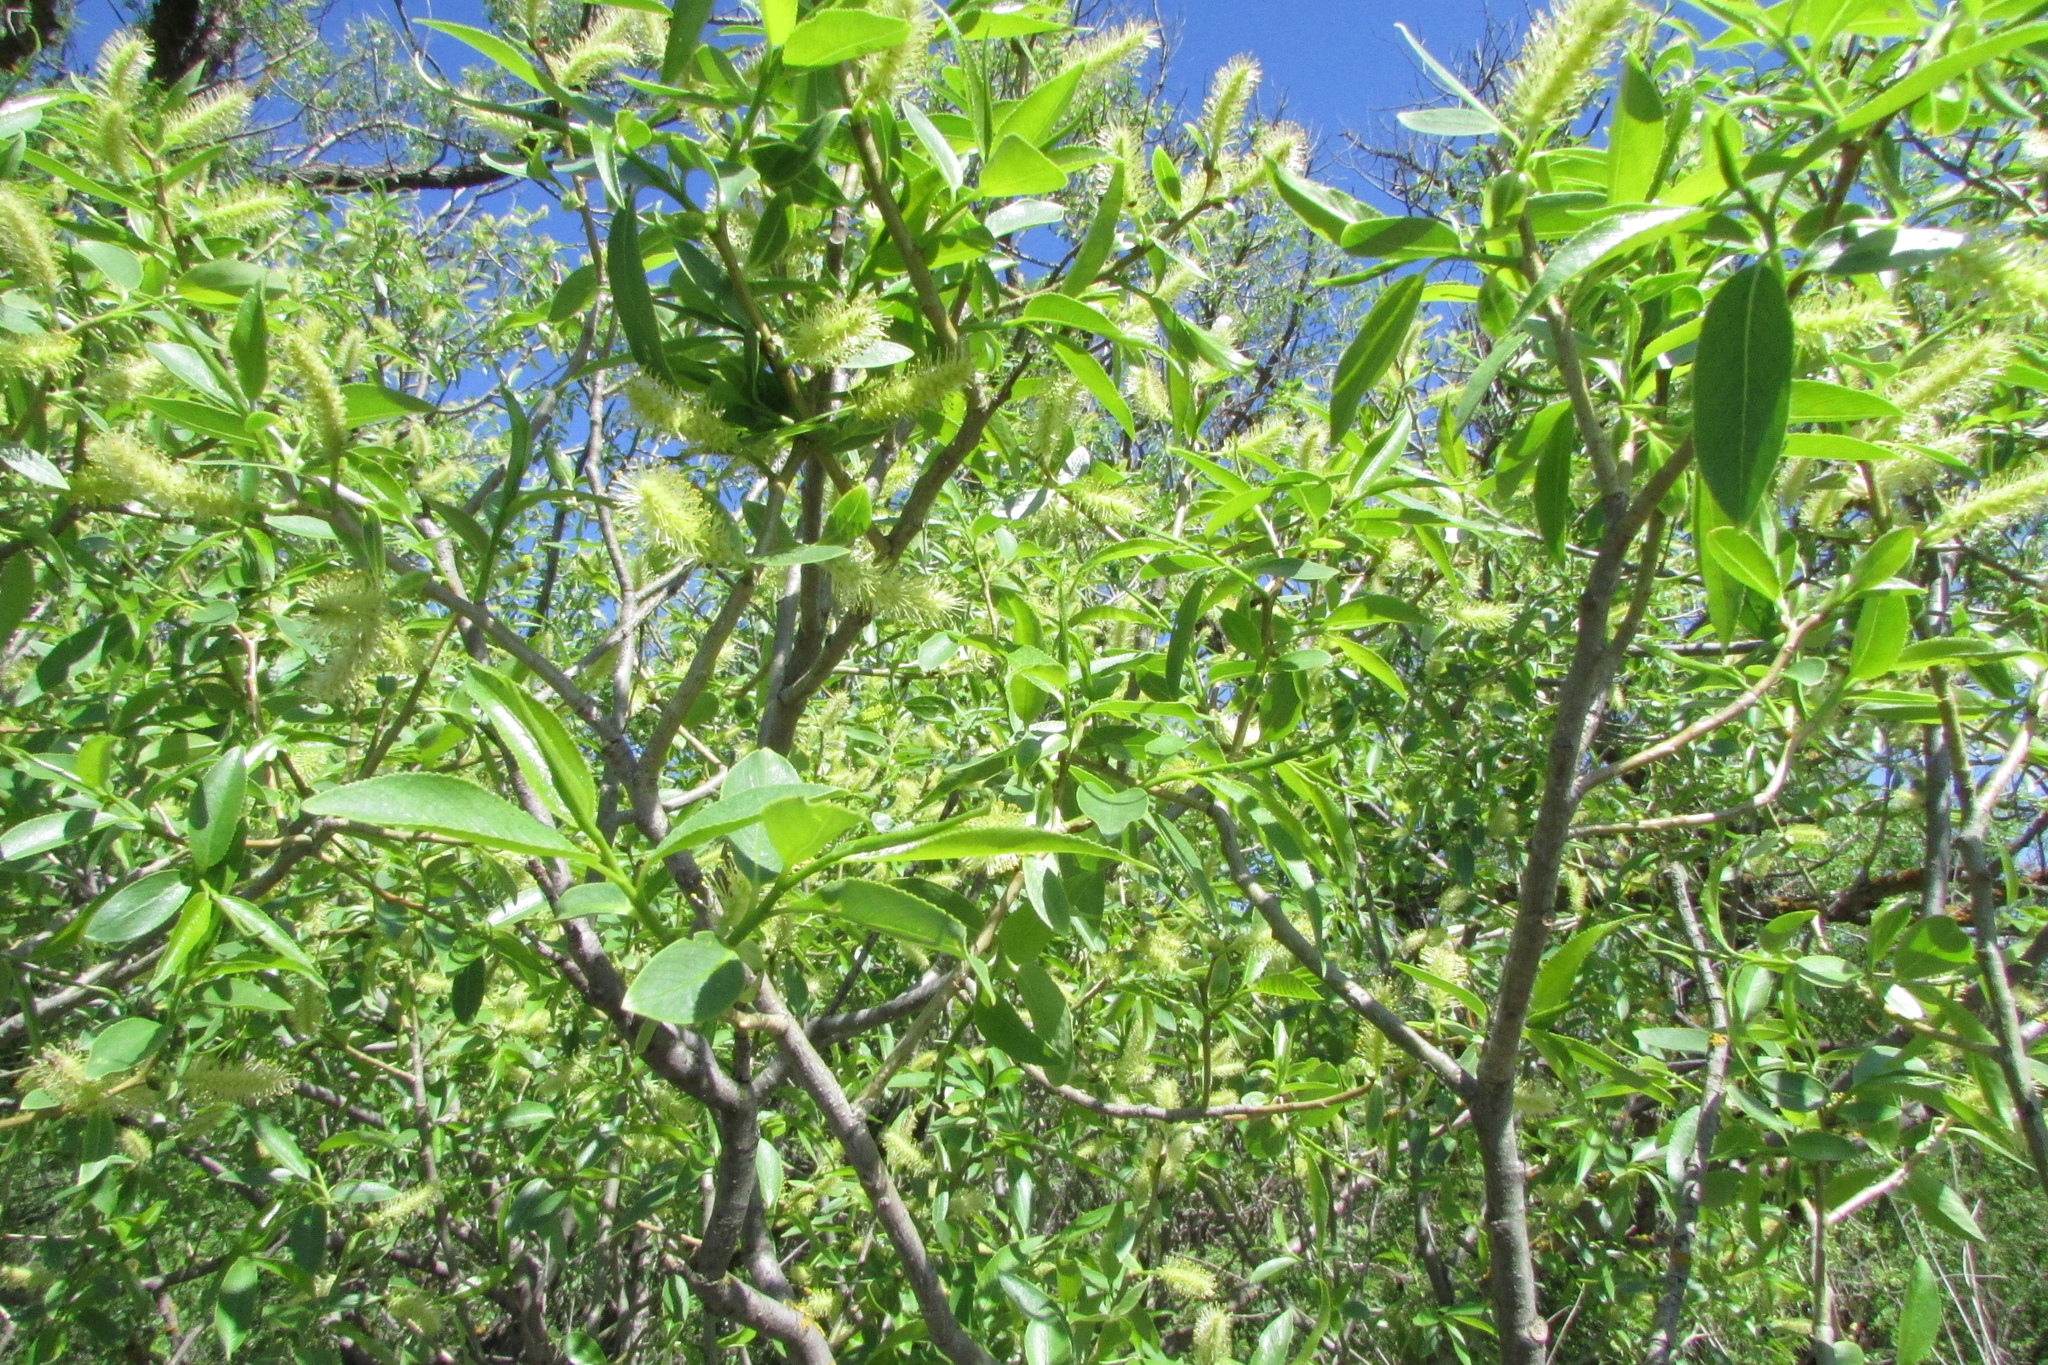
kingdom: Plantae
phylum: Tracheophyta
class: Magnoliopsida
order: Malpighiales
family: Salicaceae
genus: Salix
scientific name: Salix meyeriana
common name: Shiny-leaf willow
